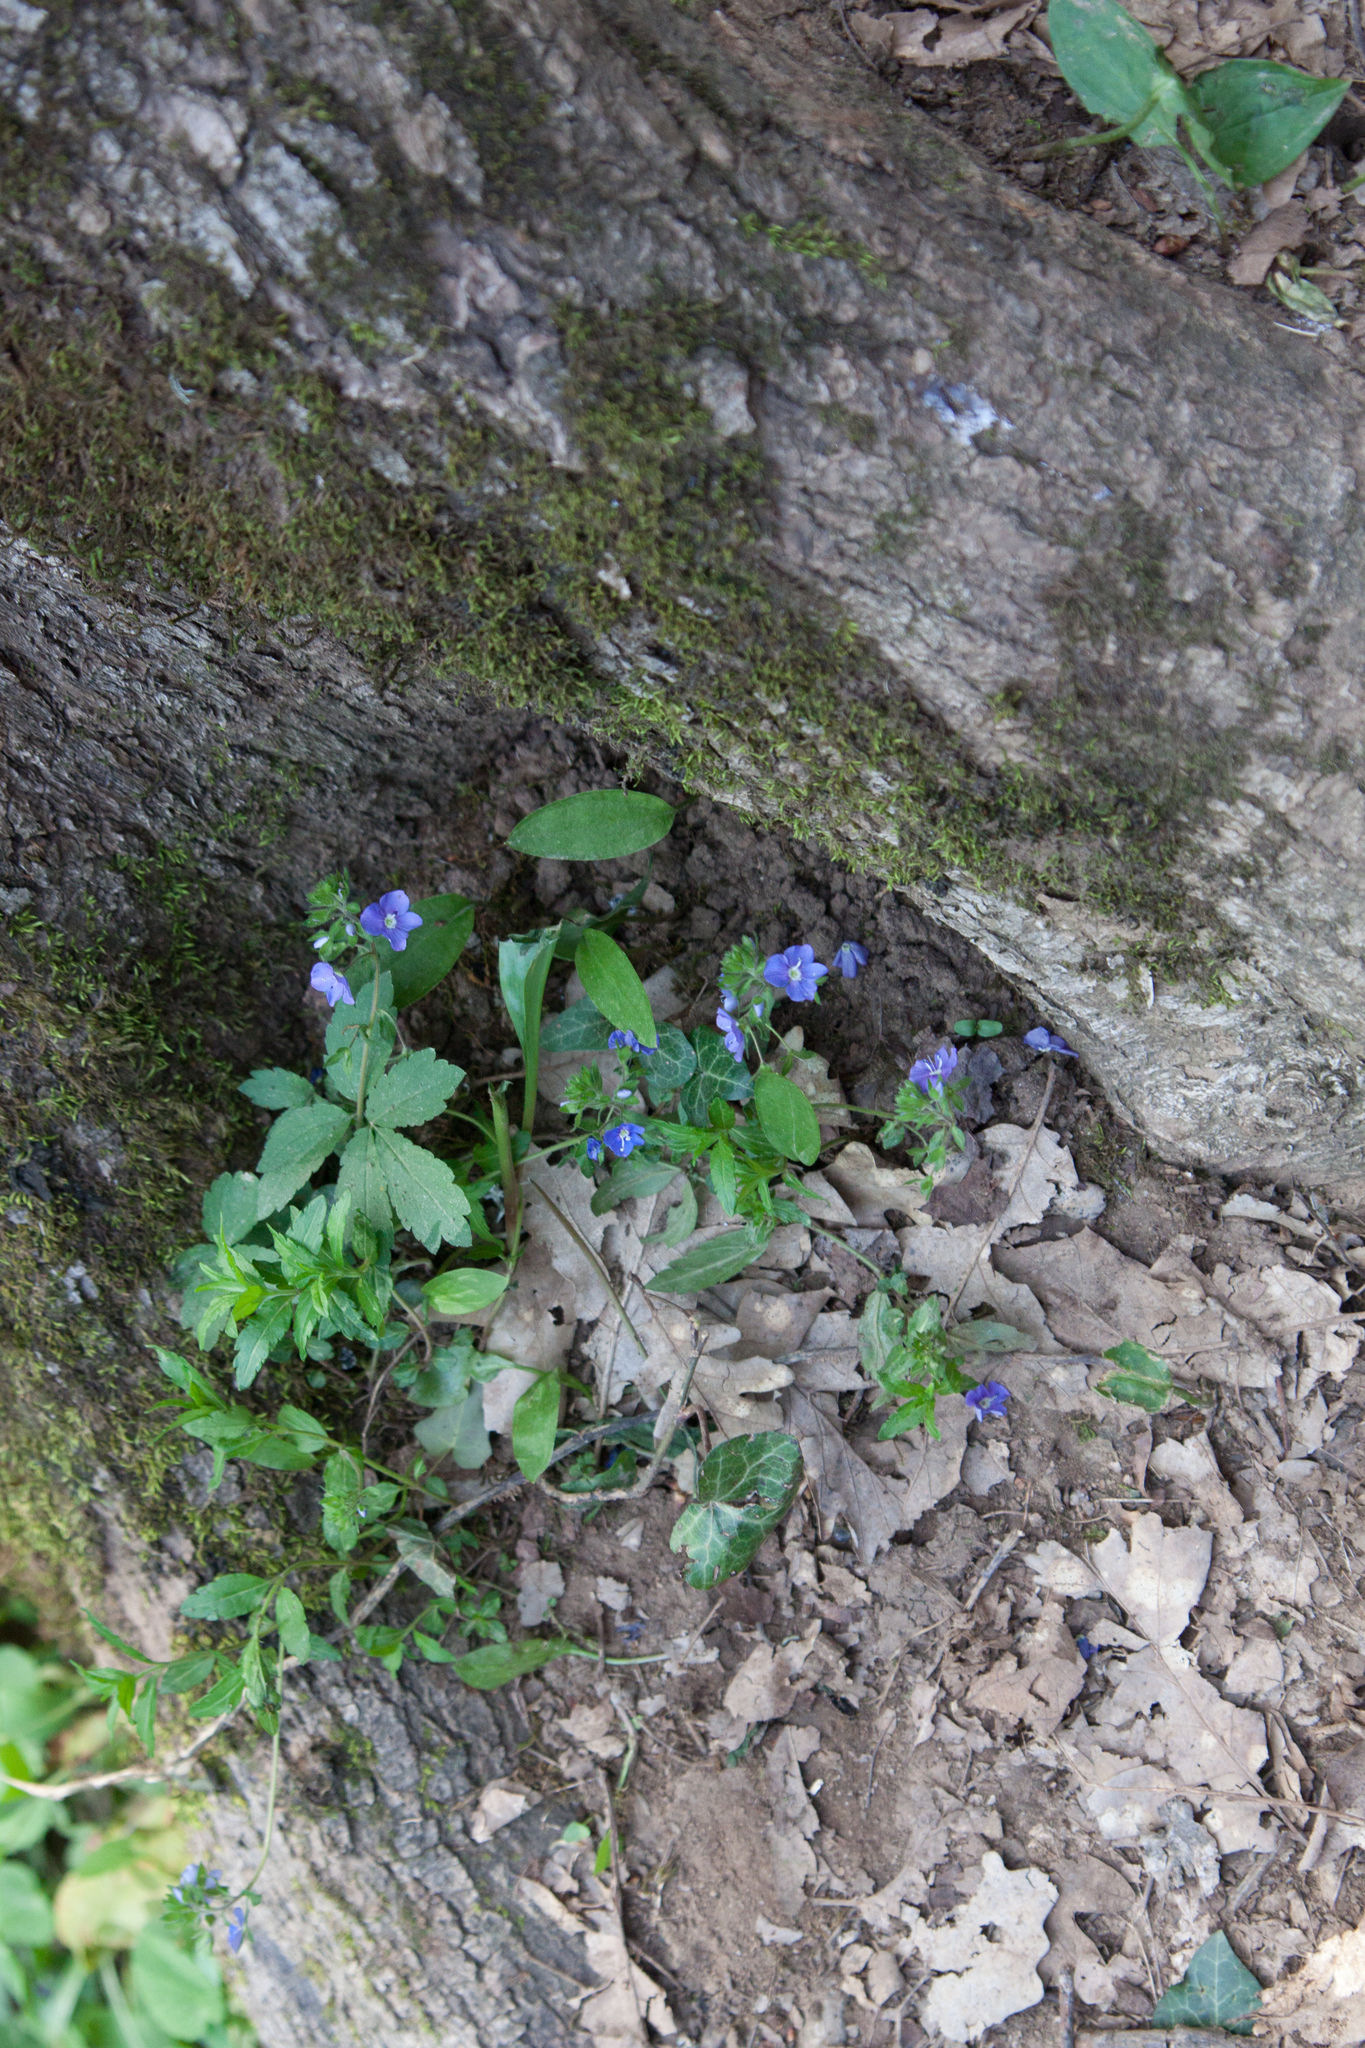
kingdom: Plantae
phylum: Tracheophyta
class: Magnoliopsida
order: Lamiales
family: Plantaginaceae
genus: Veronica
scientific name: Veronica
